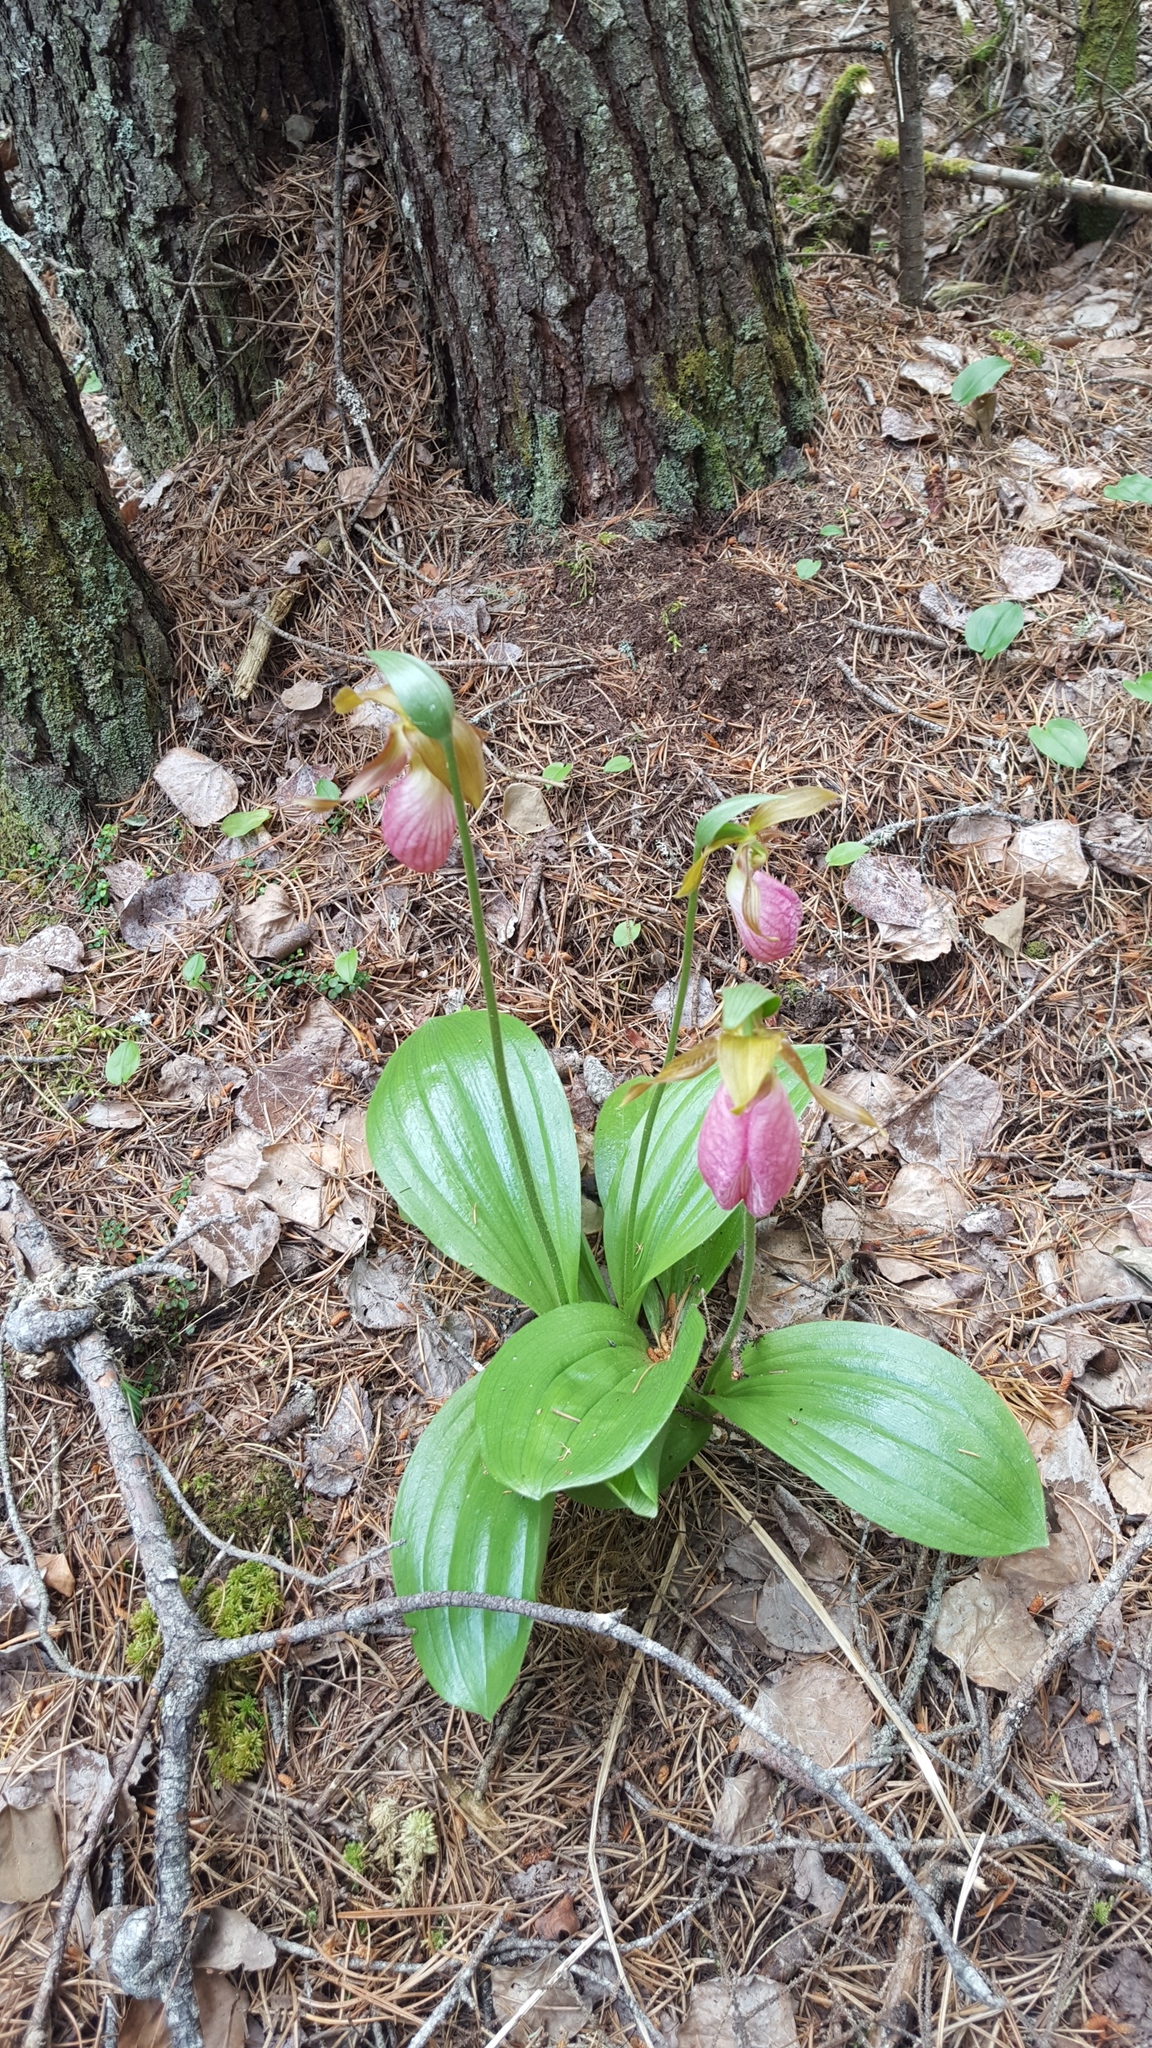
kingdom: Plantae
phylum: Tracheophyta
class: Liliopsida
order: Asparagales
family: Orchidaceae
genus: Cypripedium
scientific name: Cypripedium acaule
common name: Pink lady's-slipper
